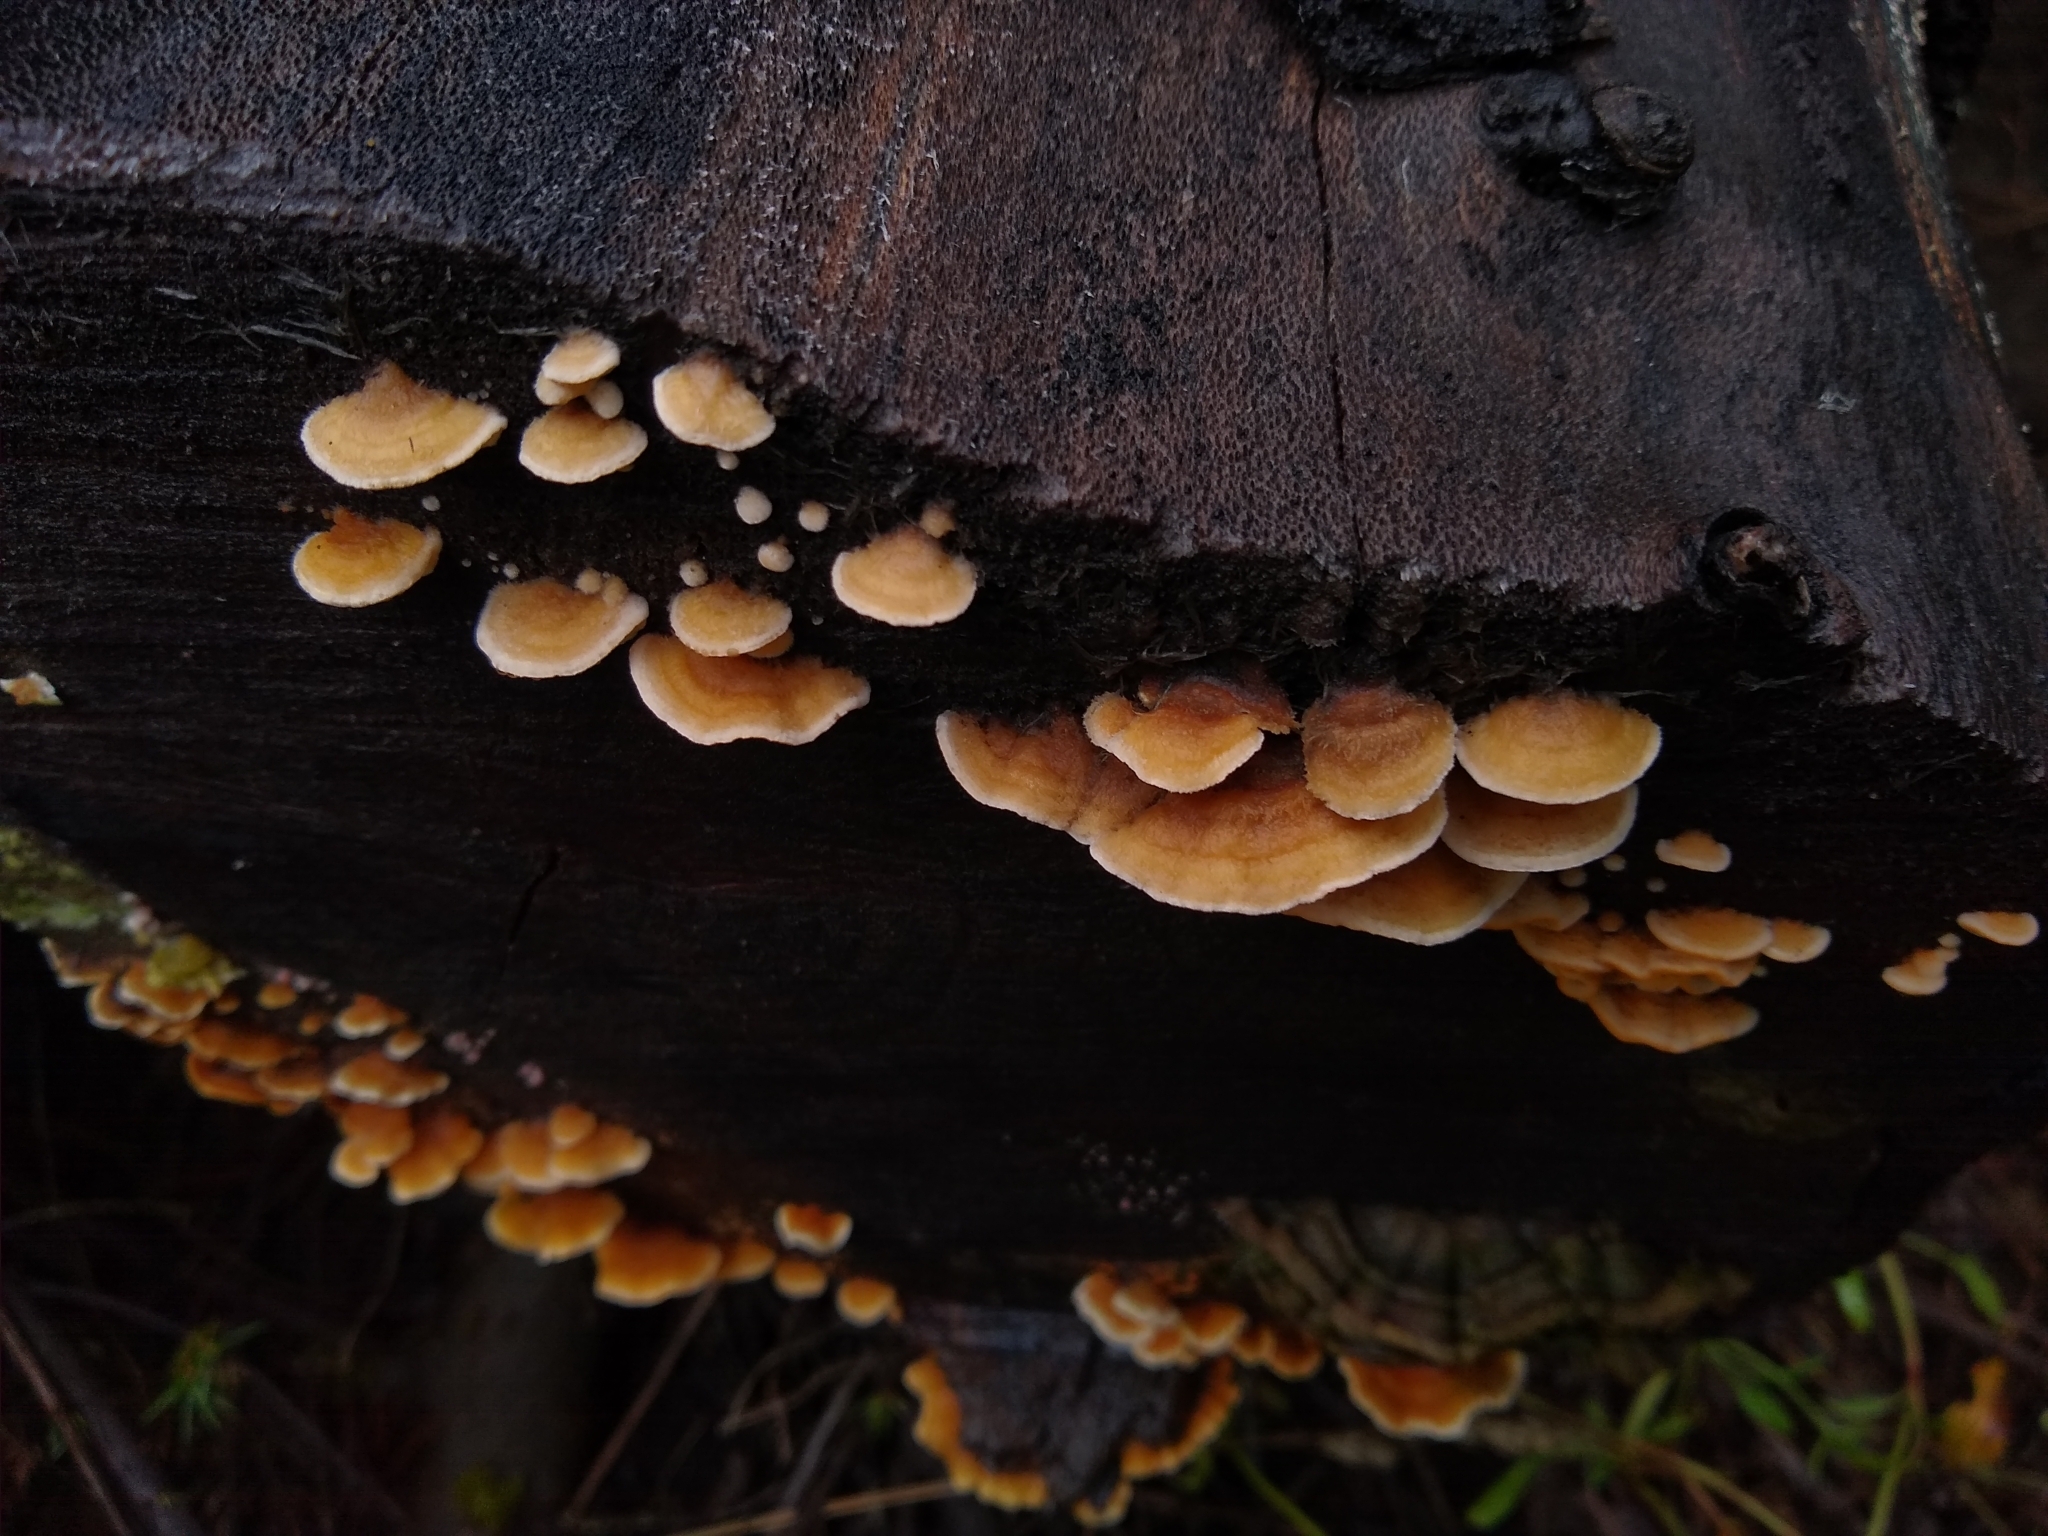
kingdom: Fungi
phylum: Basidiomycota
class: Agaricomycetes
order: Russulales
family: Stereaceae
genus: Stereum
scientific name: Stereum hirsutum
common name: Hairy curtain crust
